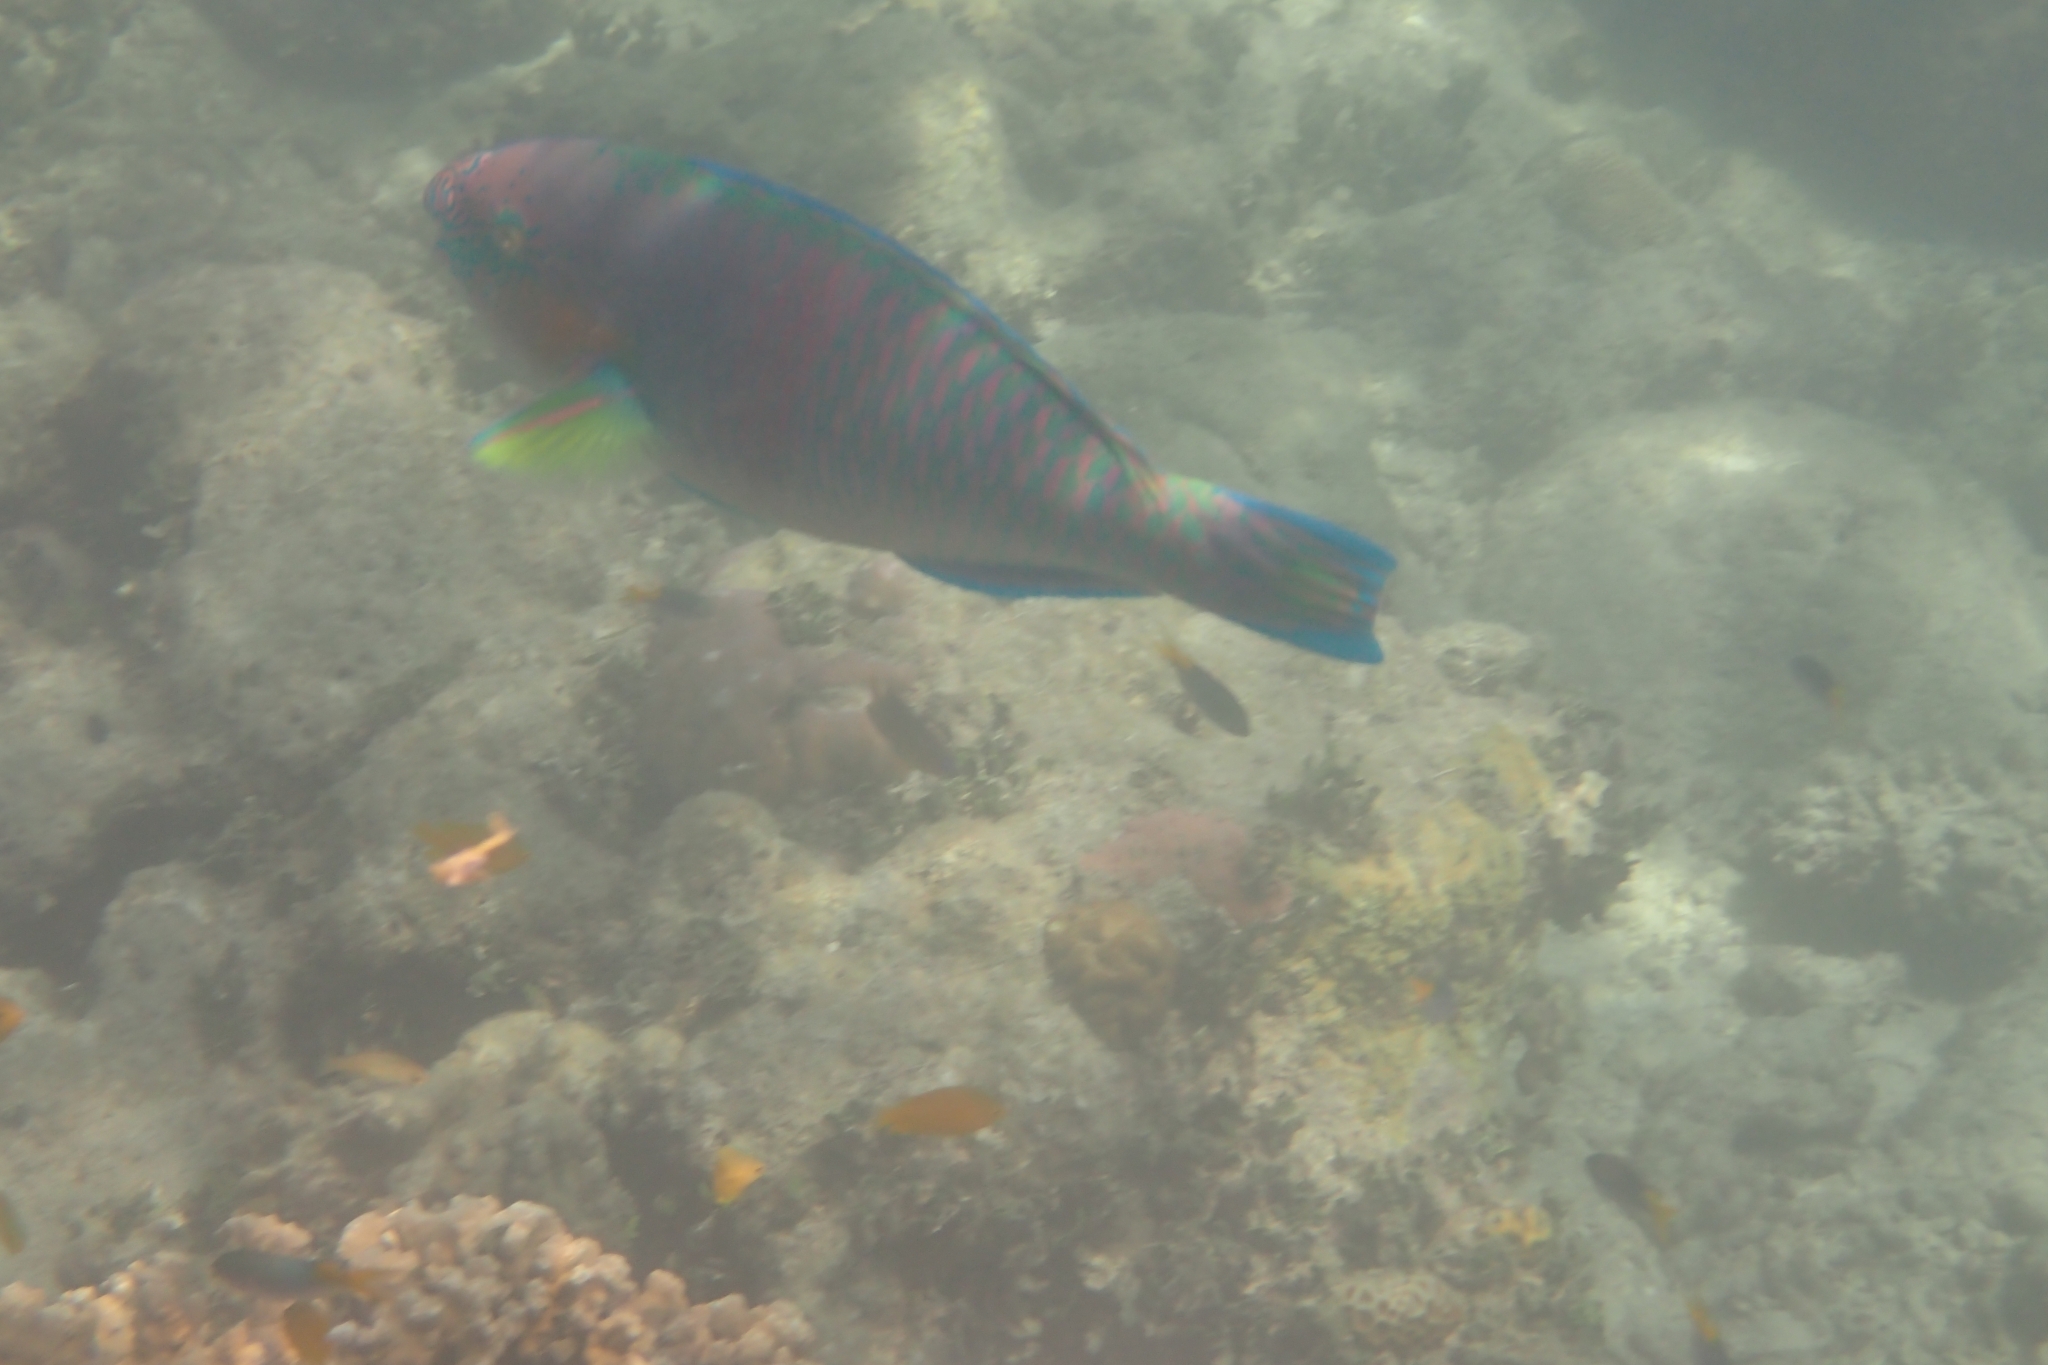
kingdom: Animalia
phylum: Chordata
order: Perciformes
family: Scaridae
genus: Scarus
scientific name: Scarus rivulatus
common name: Surf parrotfish
